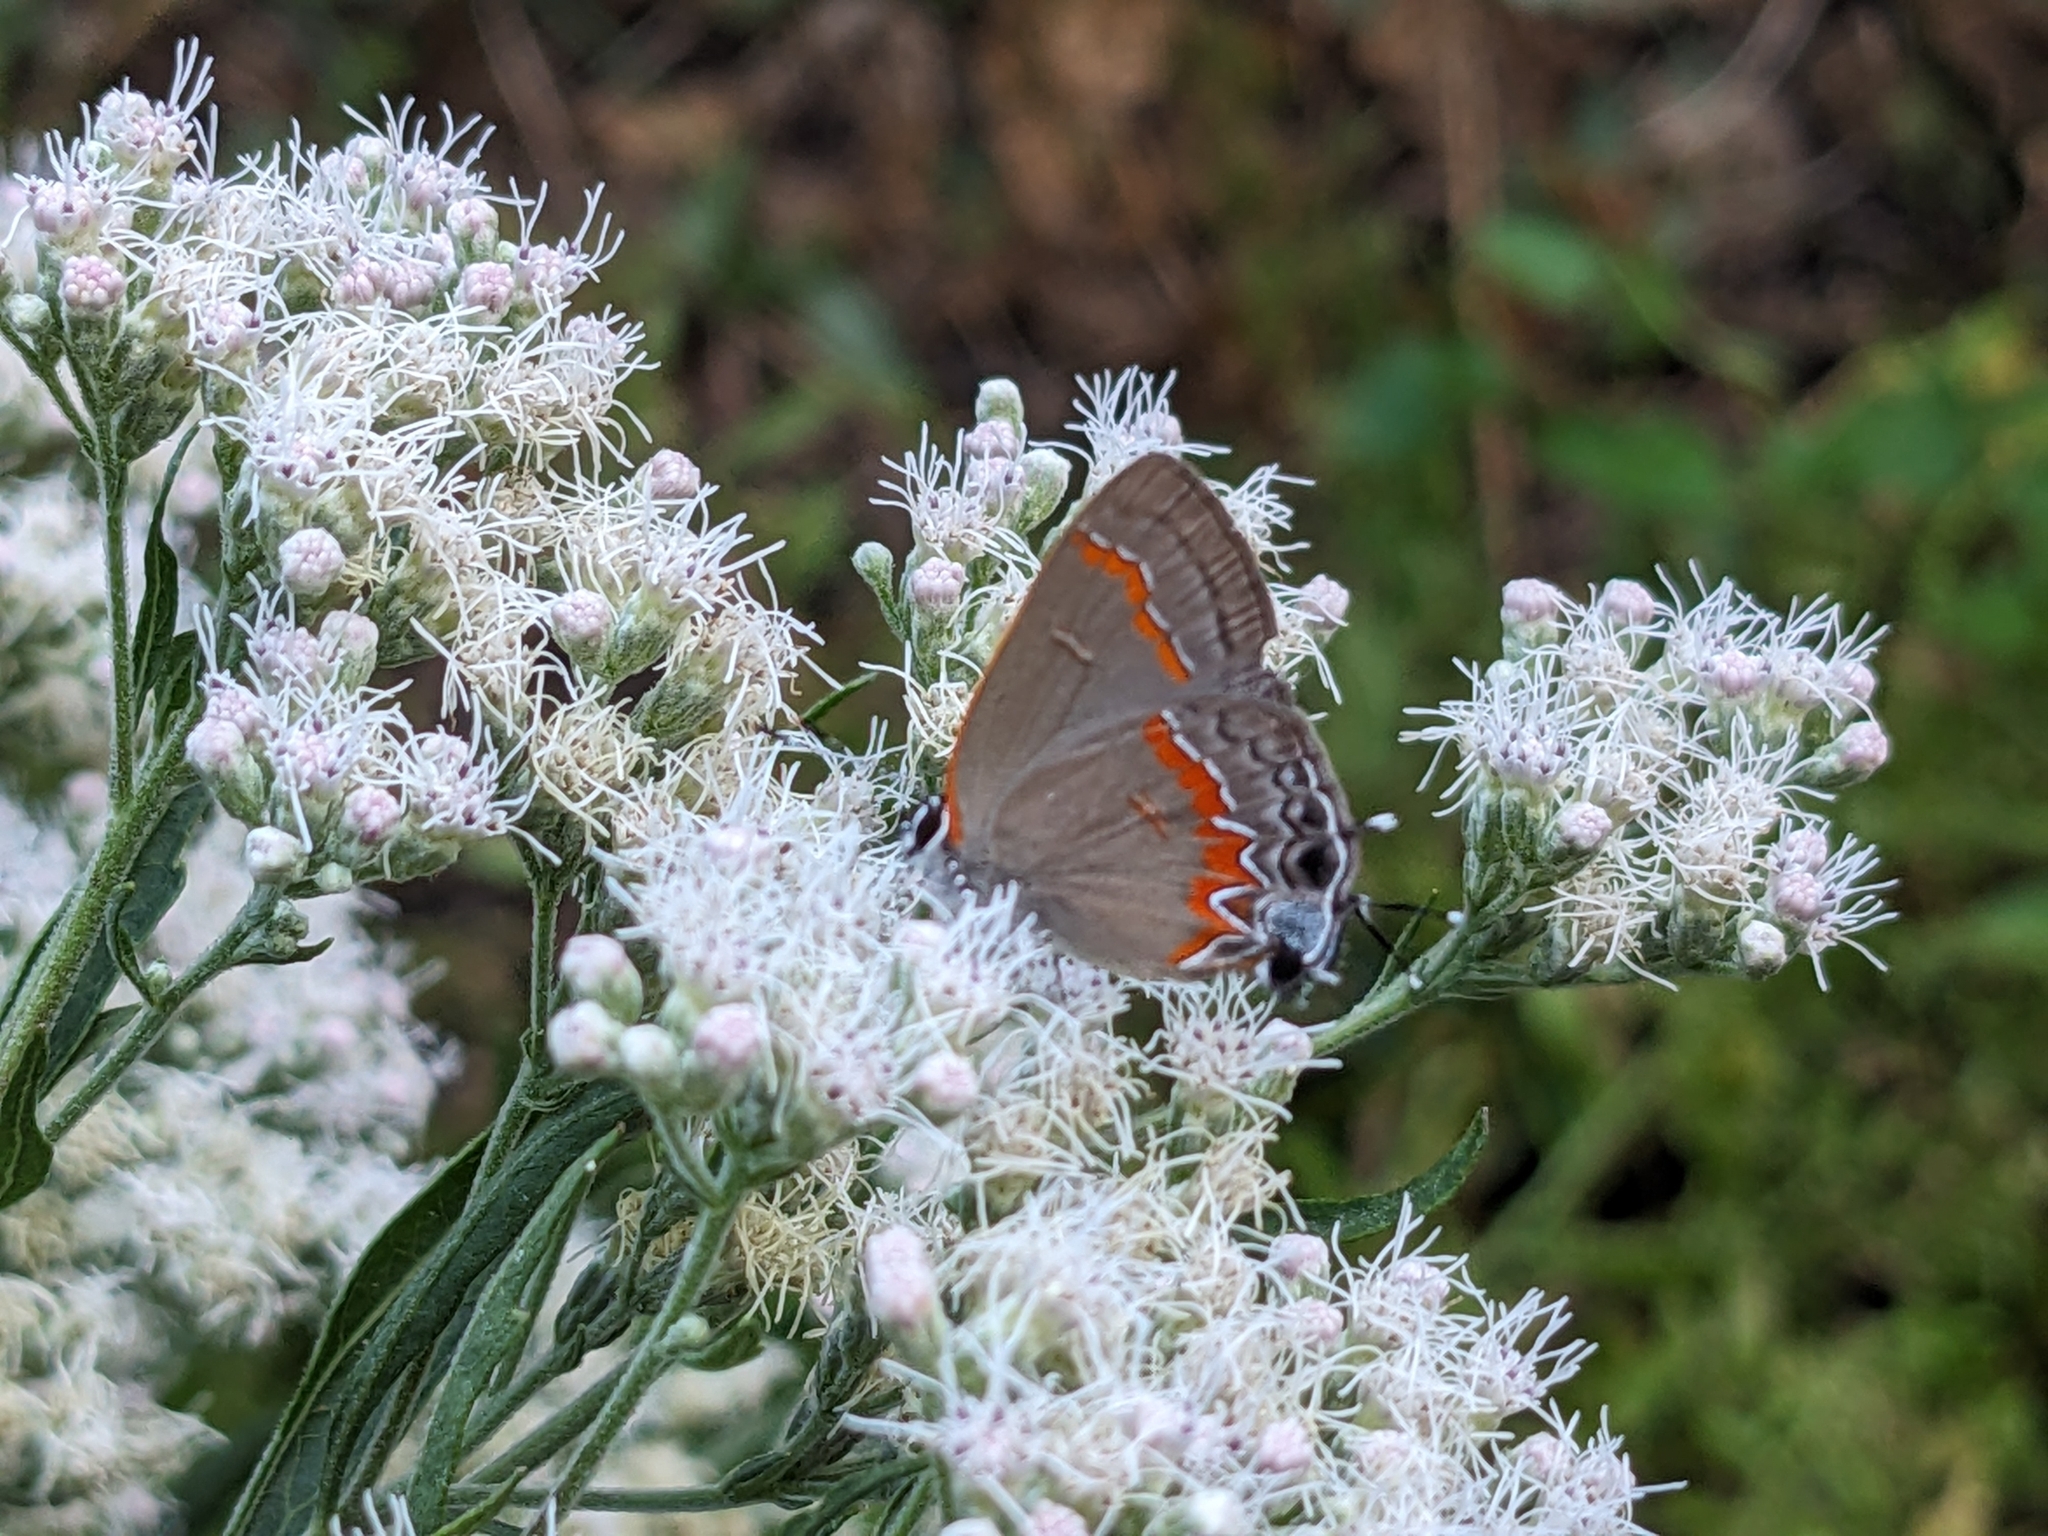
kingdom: Animalia
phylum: Arthropoda
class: Insecta
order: Lepidoptera
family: Lycaenidae
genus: Calycopis
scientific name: Calycopis cecrops
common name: Red-banded hairstreak
